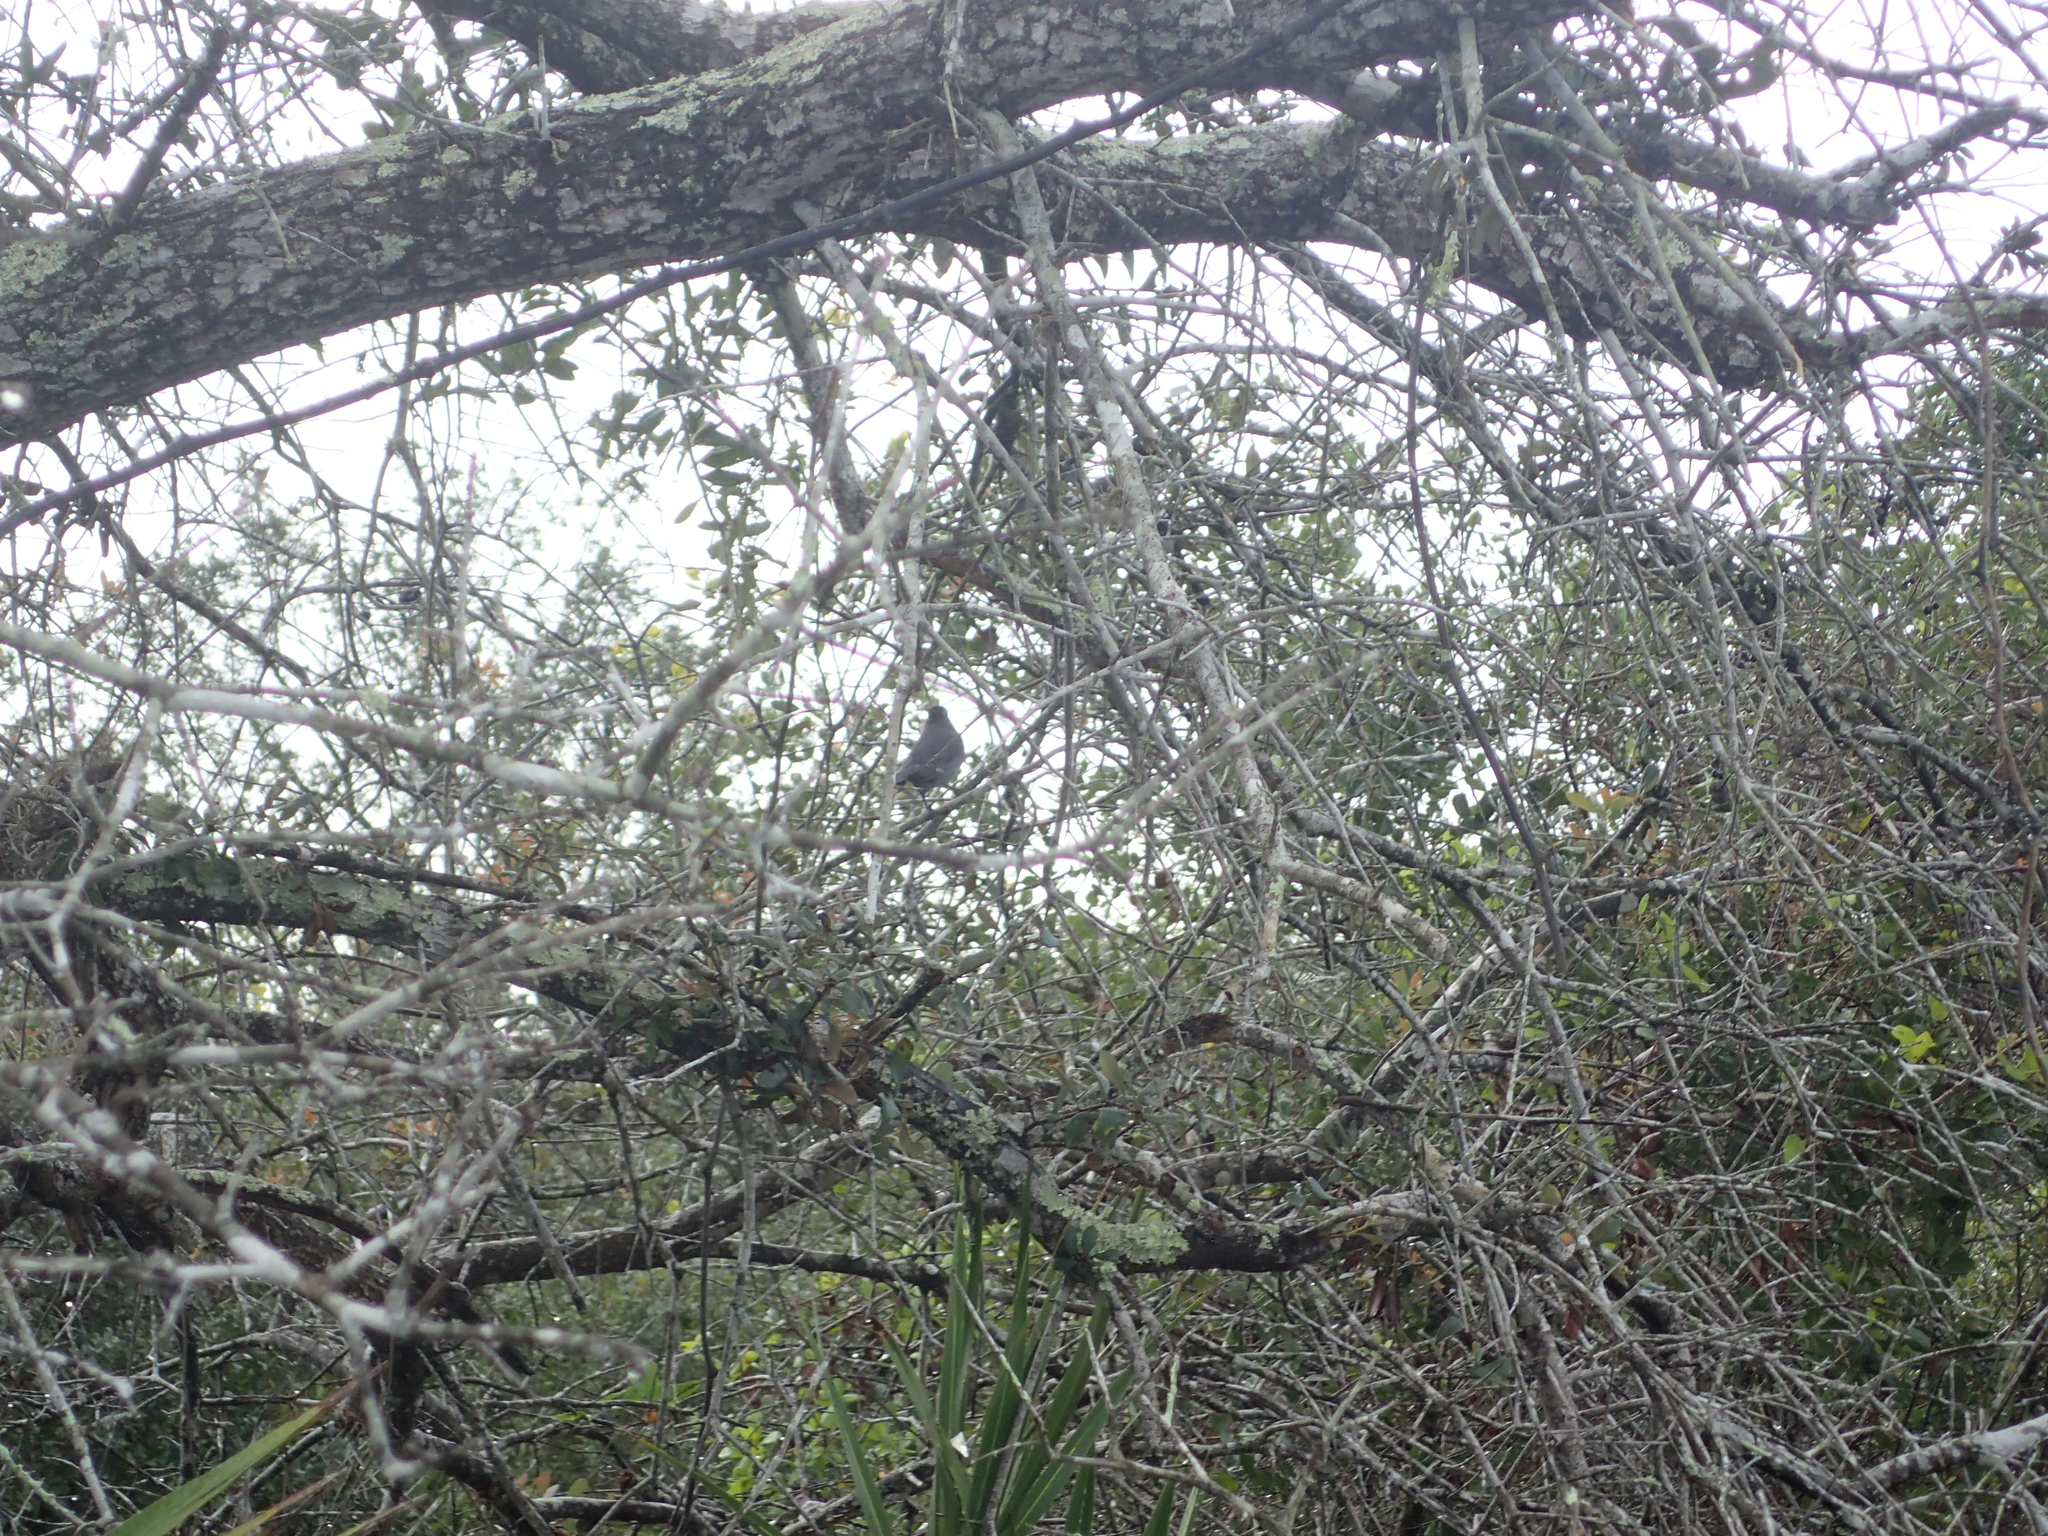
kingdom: Animalia
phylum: Chordata
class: Aves
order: Passeriformes
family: Mimidae
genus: Dumetella
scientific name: Dumetella carolinensis
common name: Gray catbird
